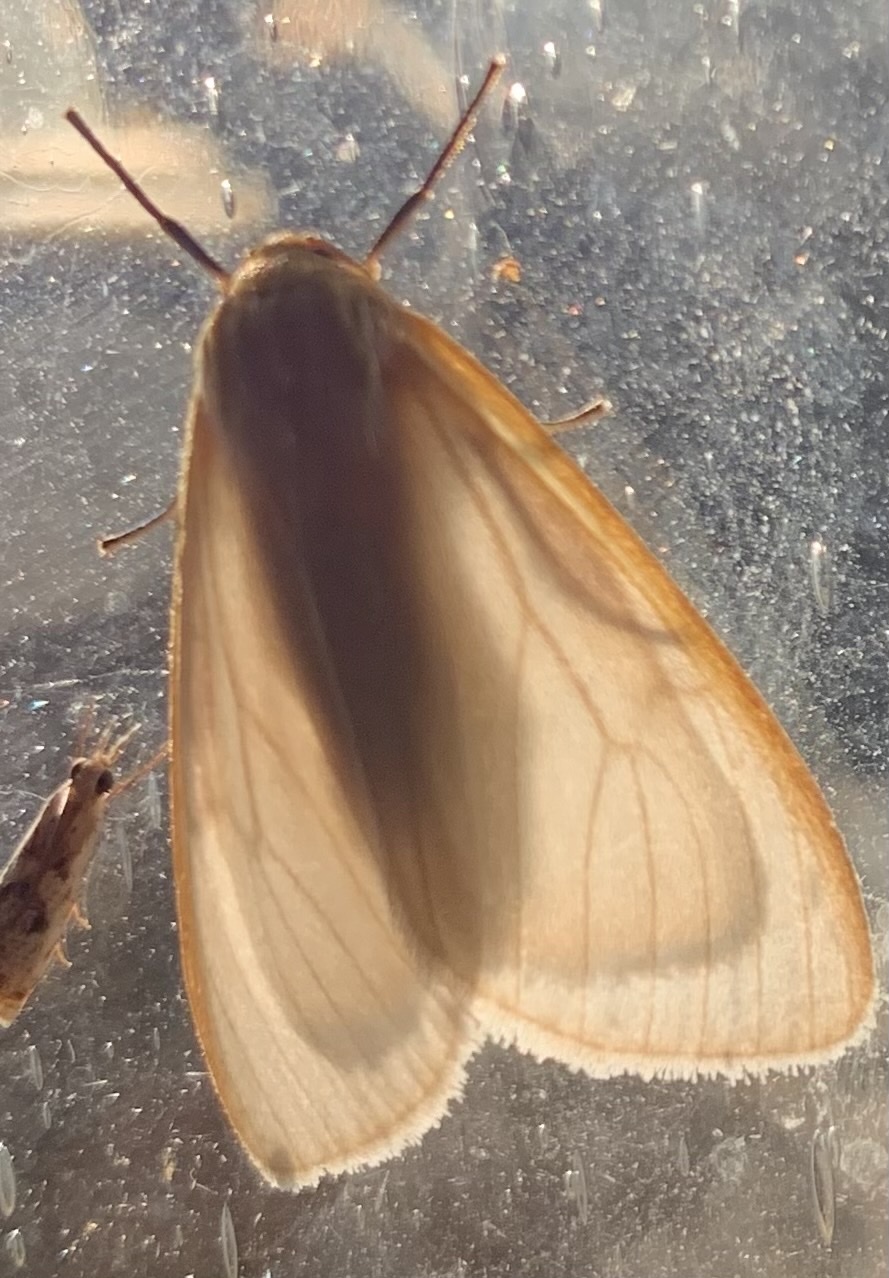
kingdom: Animalia
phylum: Arthropoda
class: Insecta
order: Lepidoptera
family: Erebidae
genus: Cycnia
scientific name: Cycnia tenera
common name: Delicate cycnia moth
